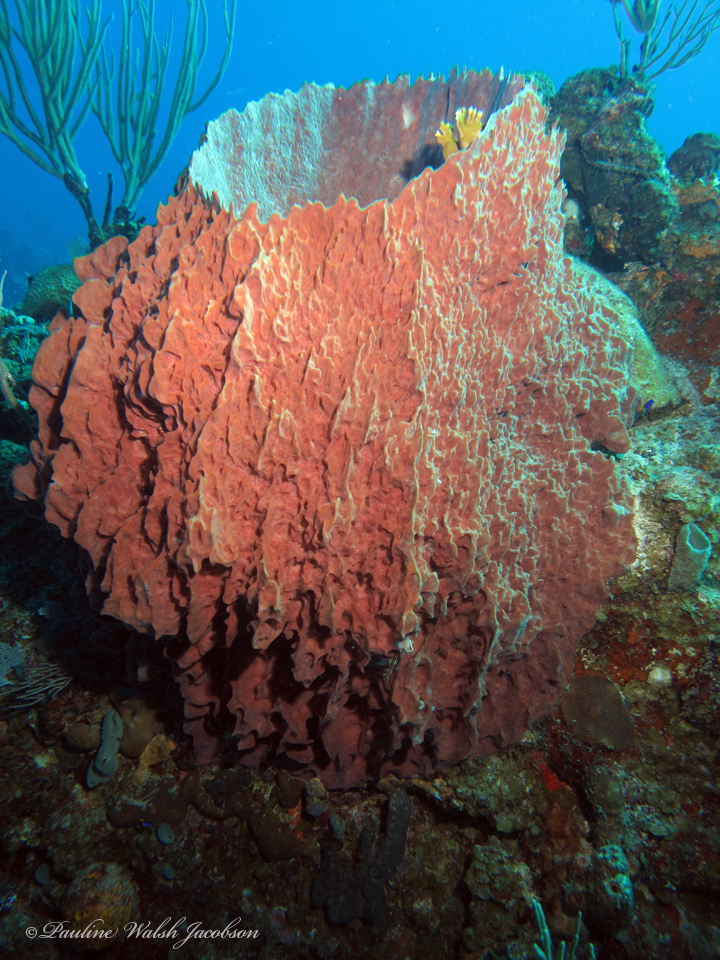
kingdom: Animalia
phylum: Porifera
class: Demospongiae
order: Haplosclerida
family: Petrosiidae
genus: Xestospongia
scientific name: Xestospongia muta
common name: Giant barrel sponge
